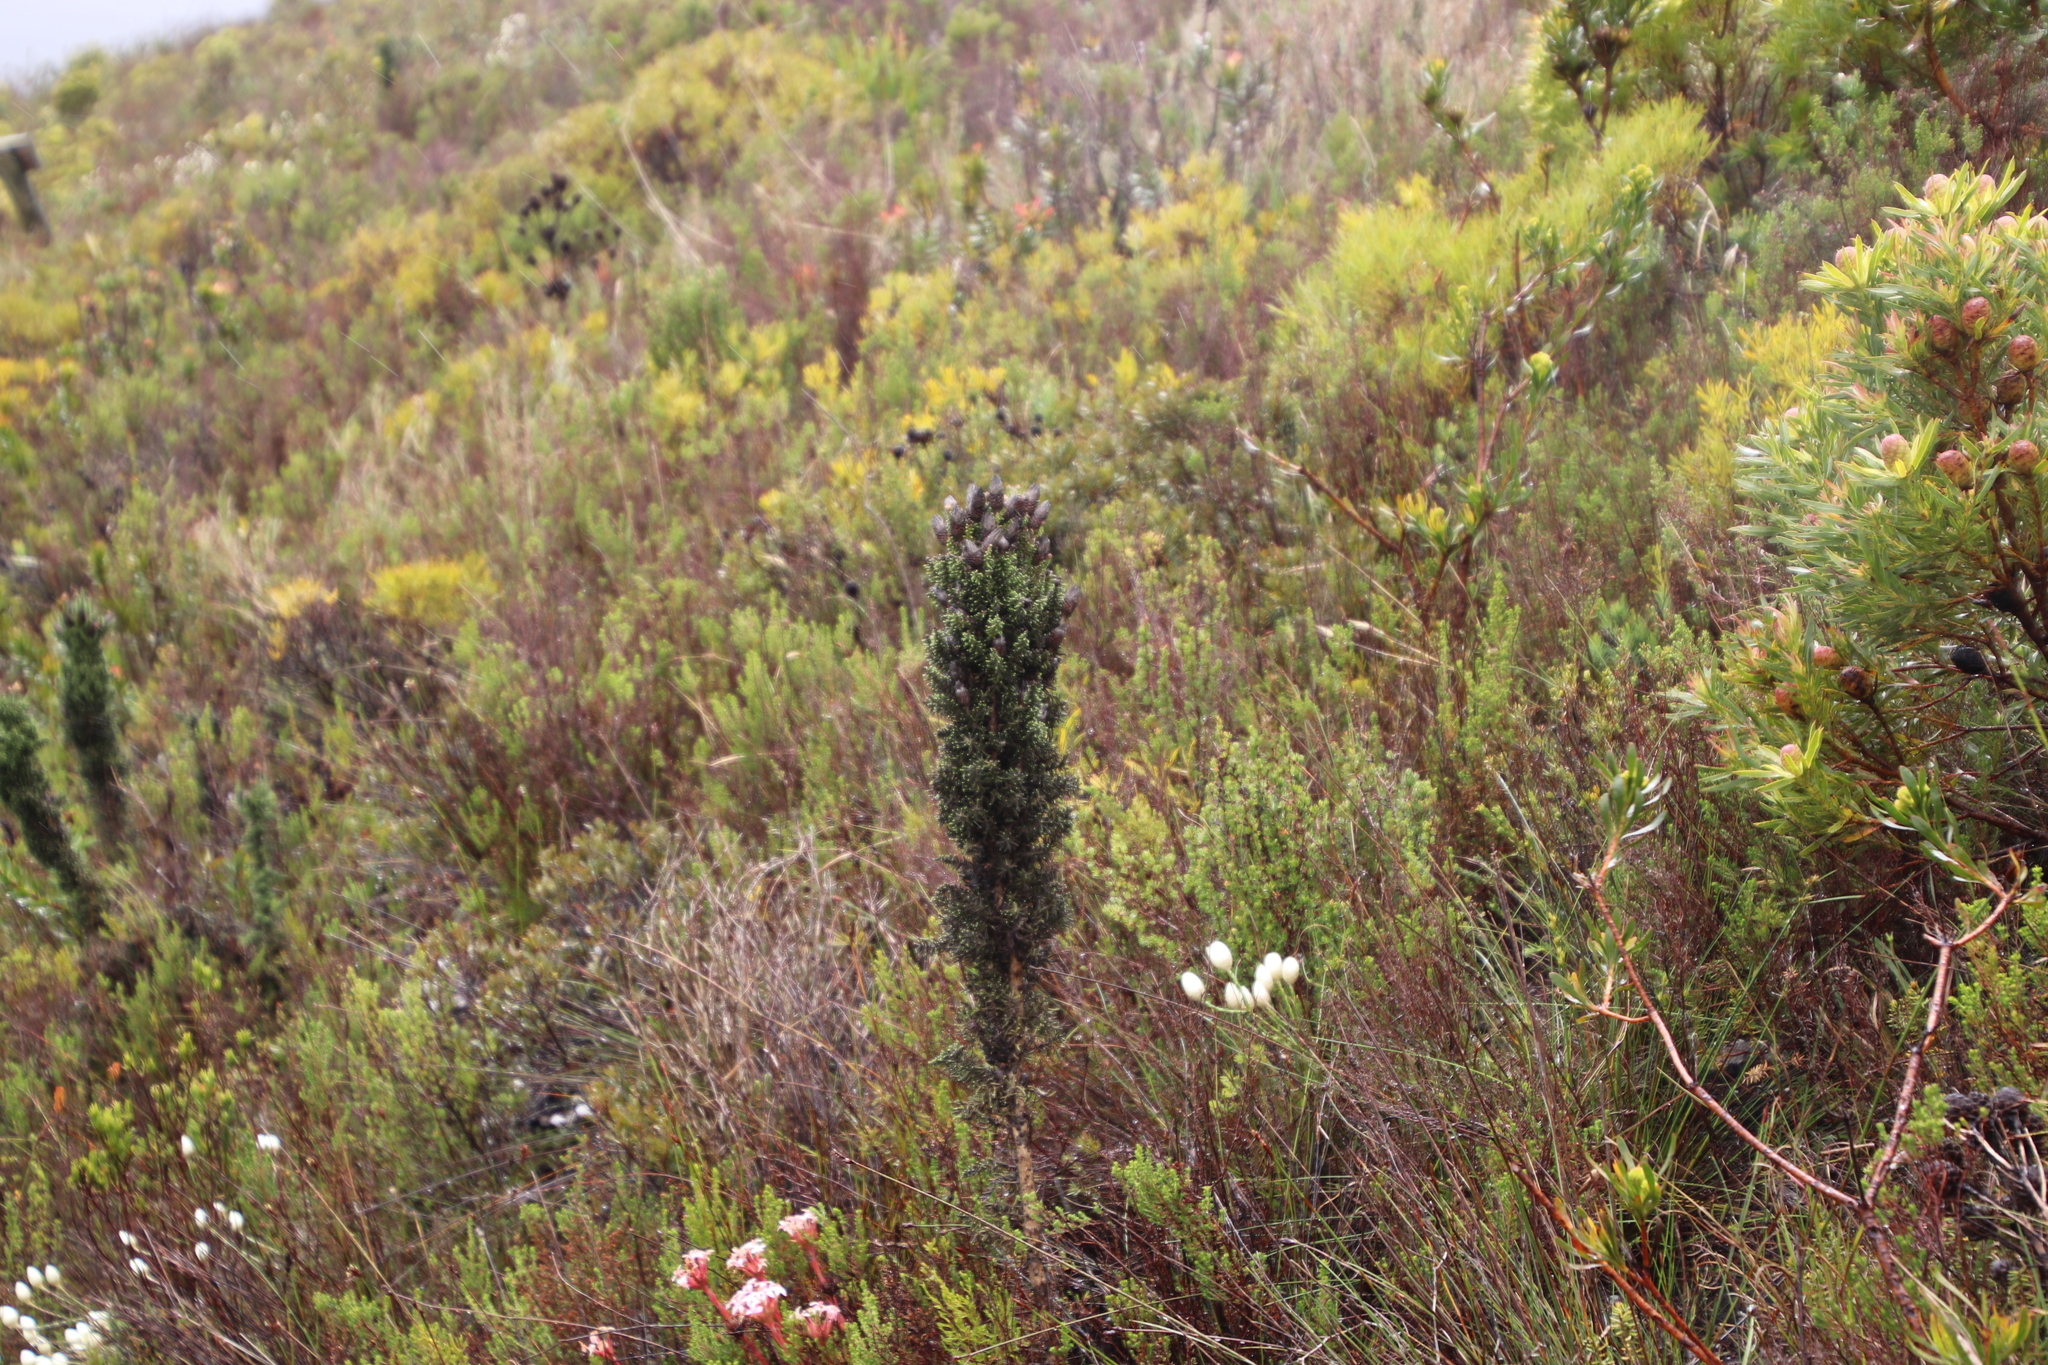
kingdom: Plantae
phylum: Tracheophyta
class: Magnoliopsida
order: Asterales
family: Asteraceae
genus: Phaenocoma
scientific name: Phaenocoma prolifera
